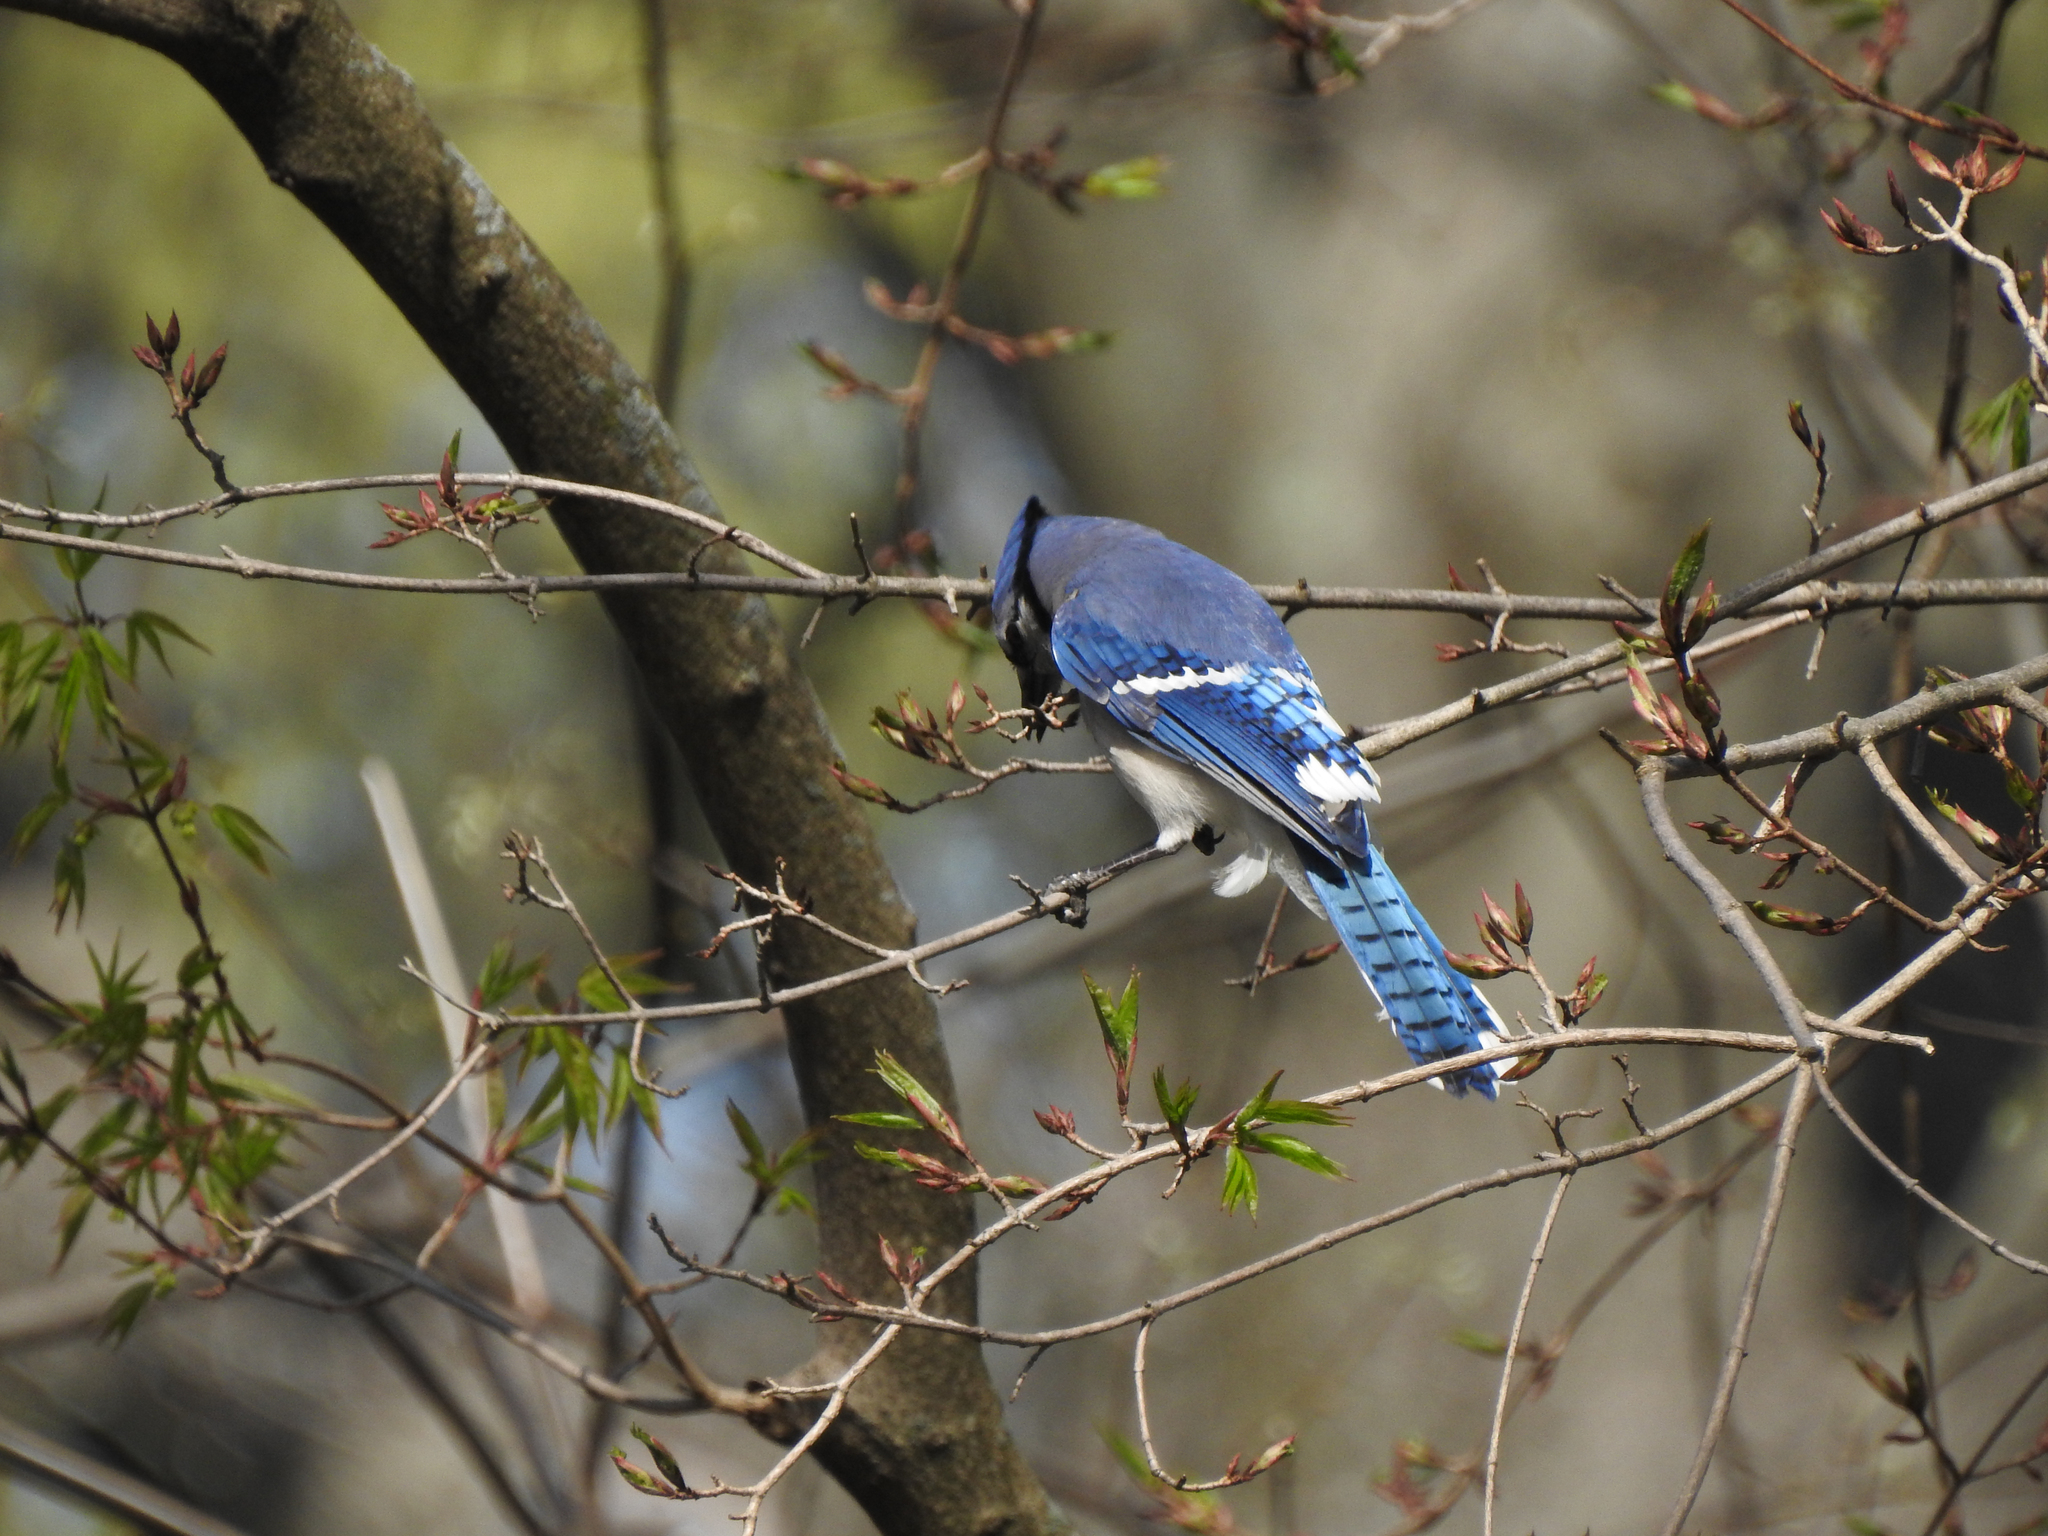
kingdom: Animalia
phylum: Chordata
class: Aves
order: Passeriformes
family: Corvidae
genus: Cyanocitta
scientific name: Cyanocitta cristata
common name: Blue jay
